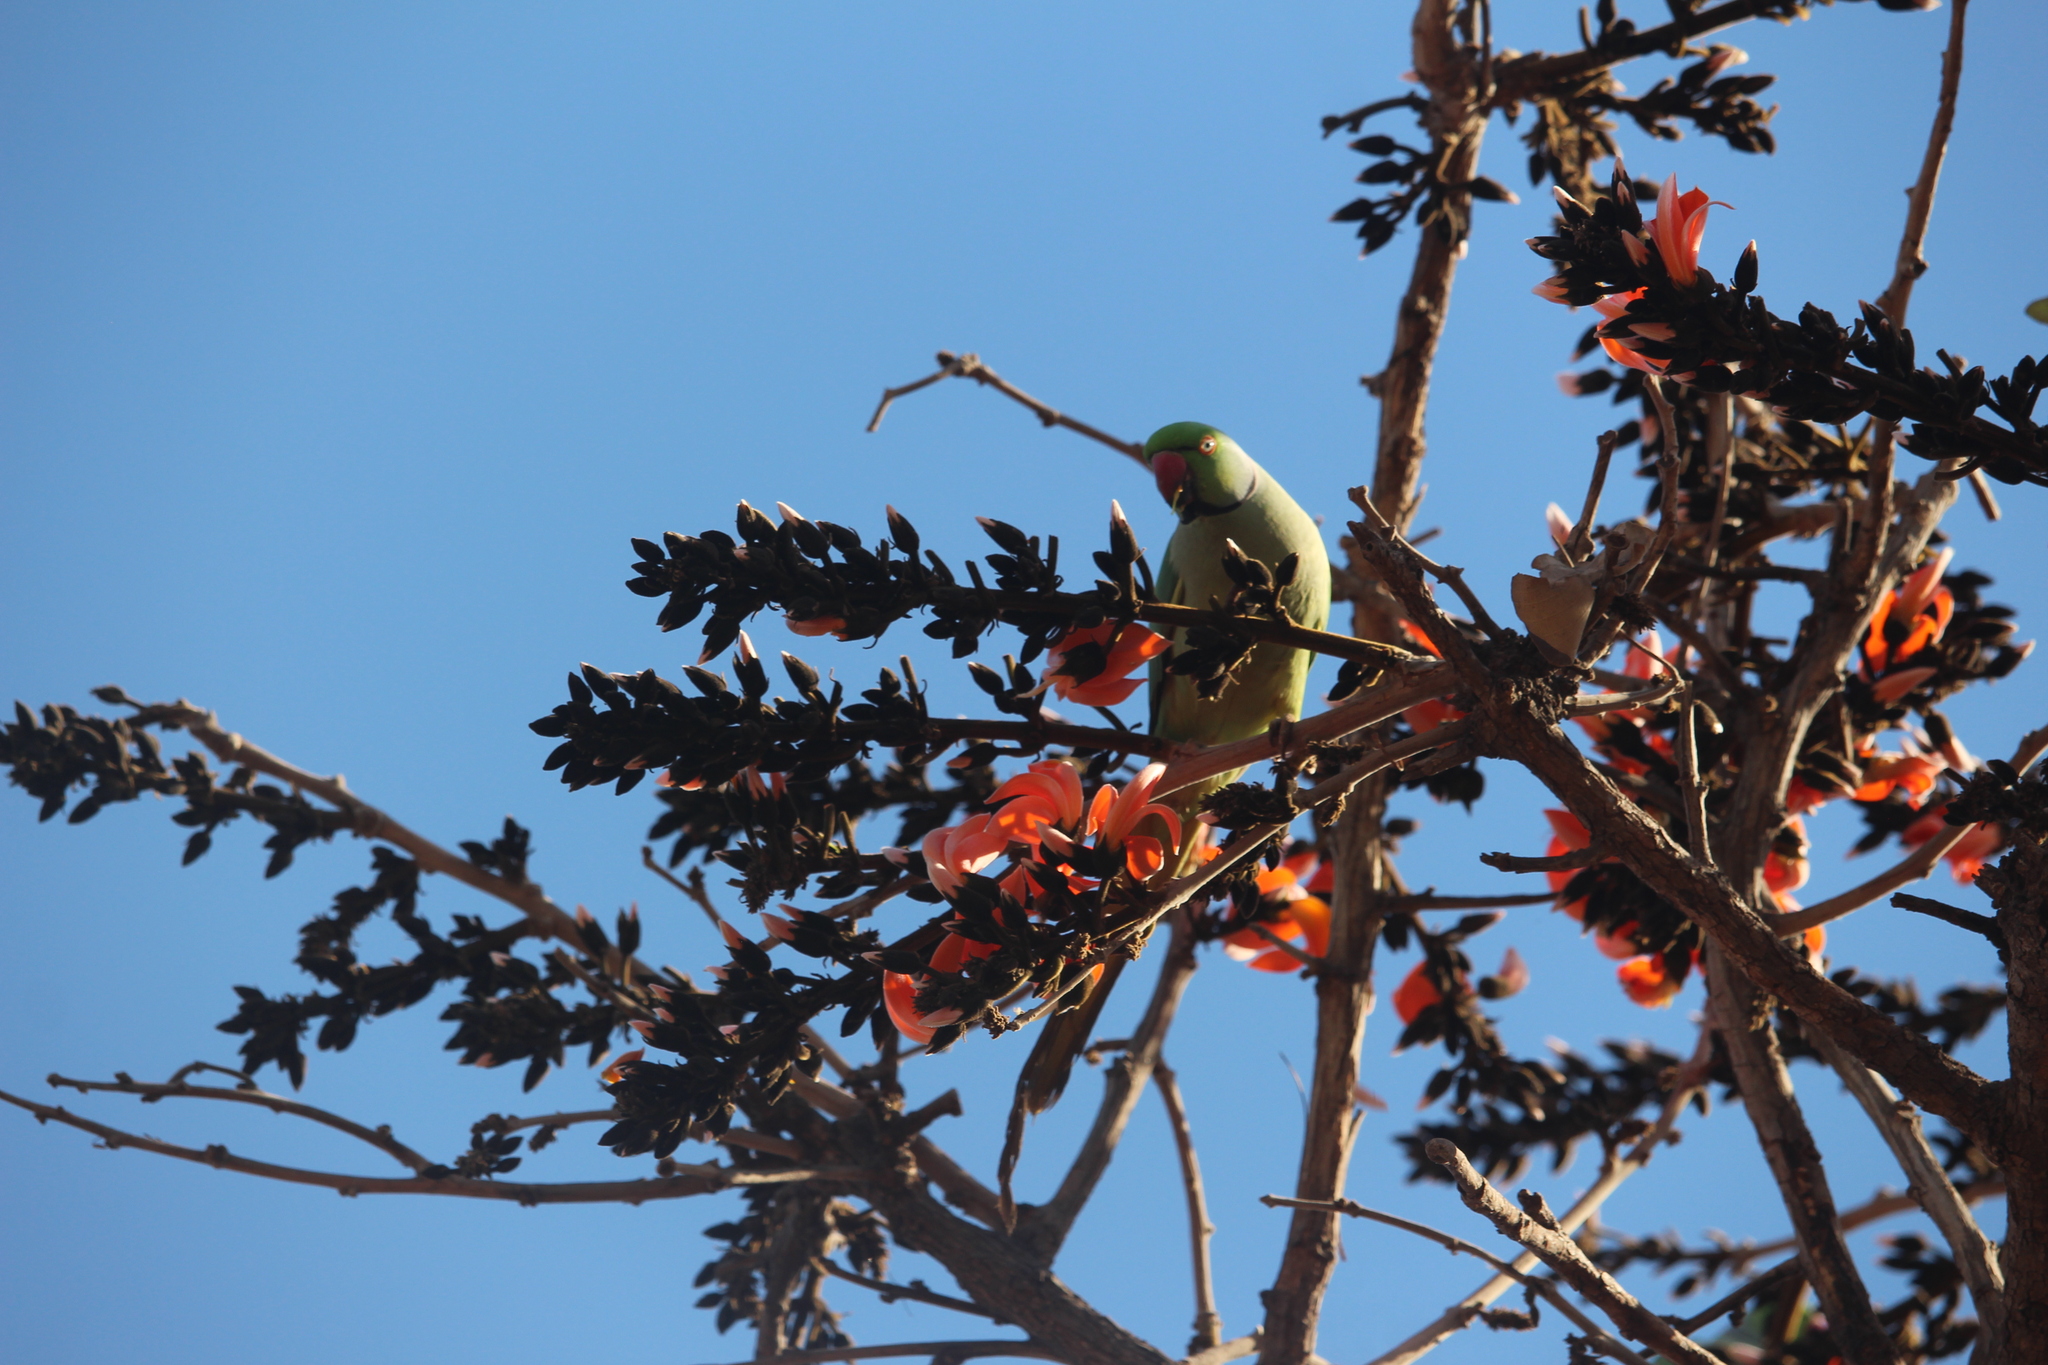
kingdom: Animalia
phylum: Chordata
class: Aves
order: Psittaciformes
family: Psittacidae
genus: Psittacula
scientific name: Psittacula krameri
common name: Rose-ringed parakeet
